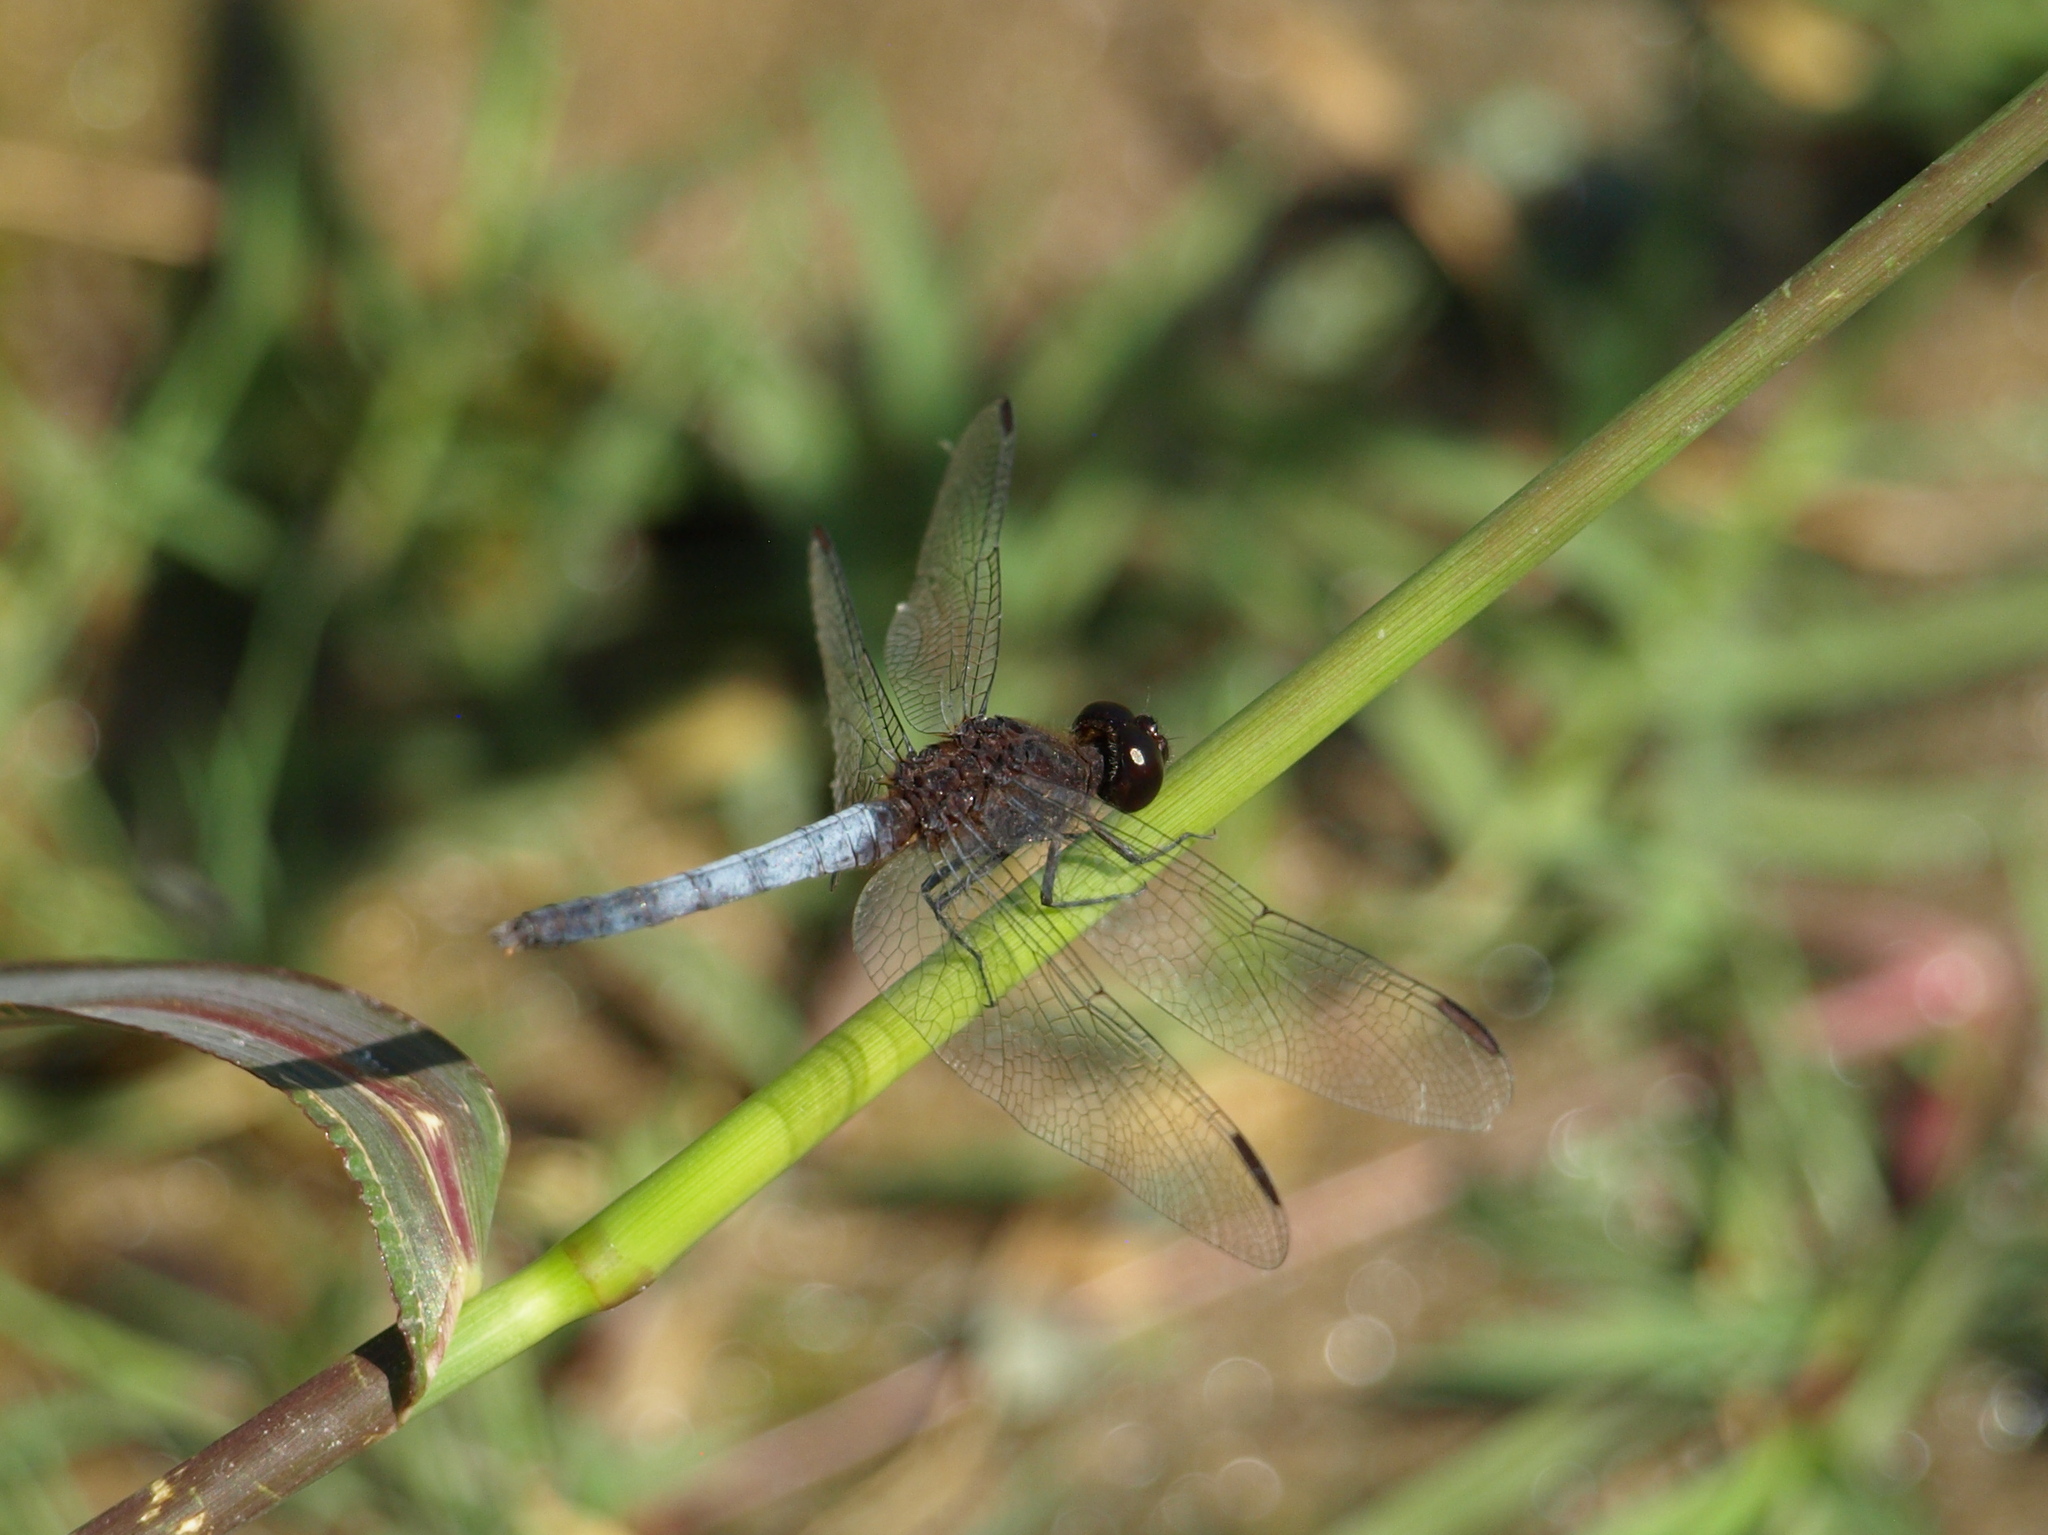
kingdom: Animalia
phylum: Arthropoda
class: Insecta
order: Odonata
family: Libellulidae
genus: Erythrodiplax
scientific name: Erythrodiplax basifusca
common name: Plateau dragonlet
